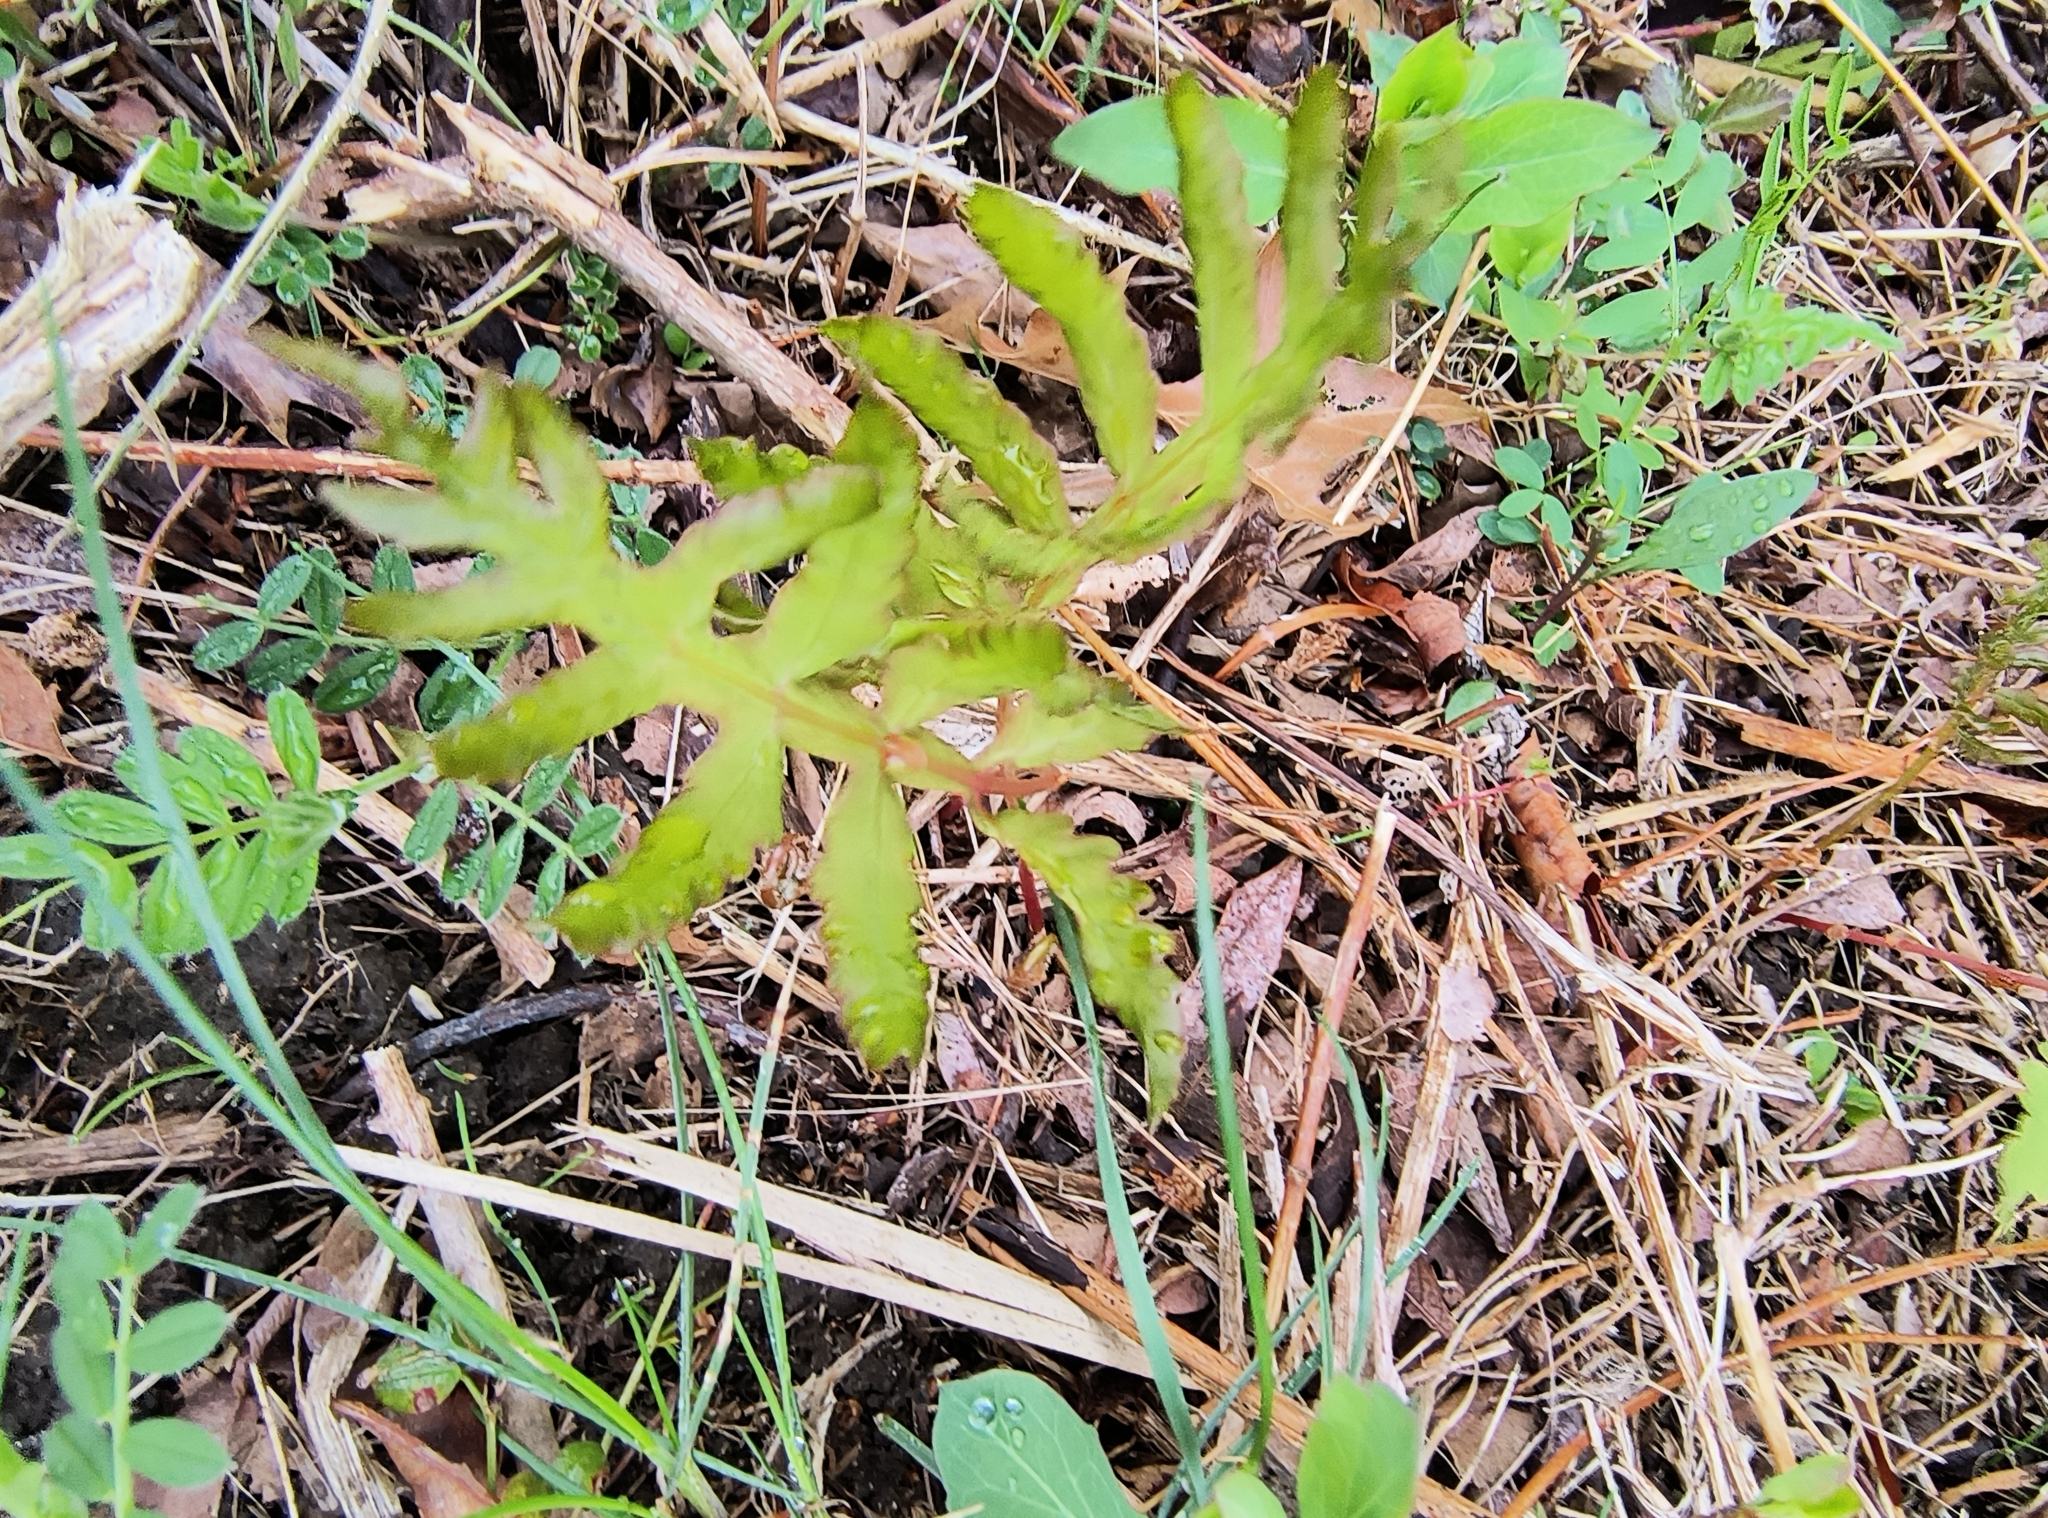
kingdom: Plantae
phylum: Tracheophyta
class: Polypodiopsida
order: Polypodiales
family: Onocleaceae
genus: Onoclea
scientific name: Onoclea sensibilis
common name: Sensitive fern
